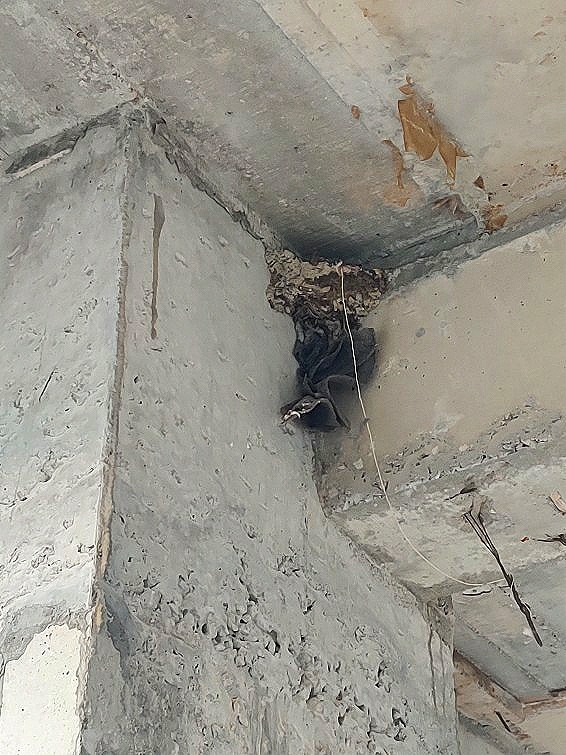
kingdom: Animalia
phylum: Chordata
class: Aves
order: Passeriformes
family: Hirundinidae
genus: Ptyonoprogne
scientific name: Ptyonoprogne concolor
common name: Dusky crag-martin
